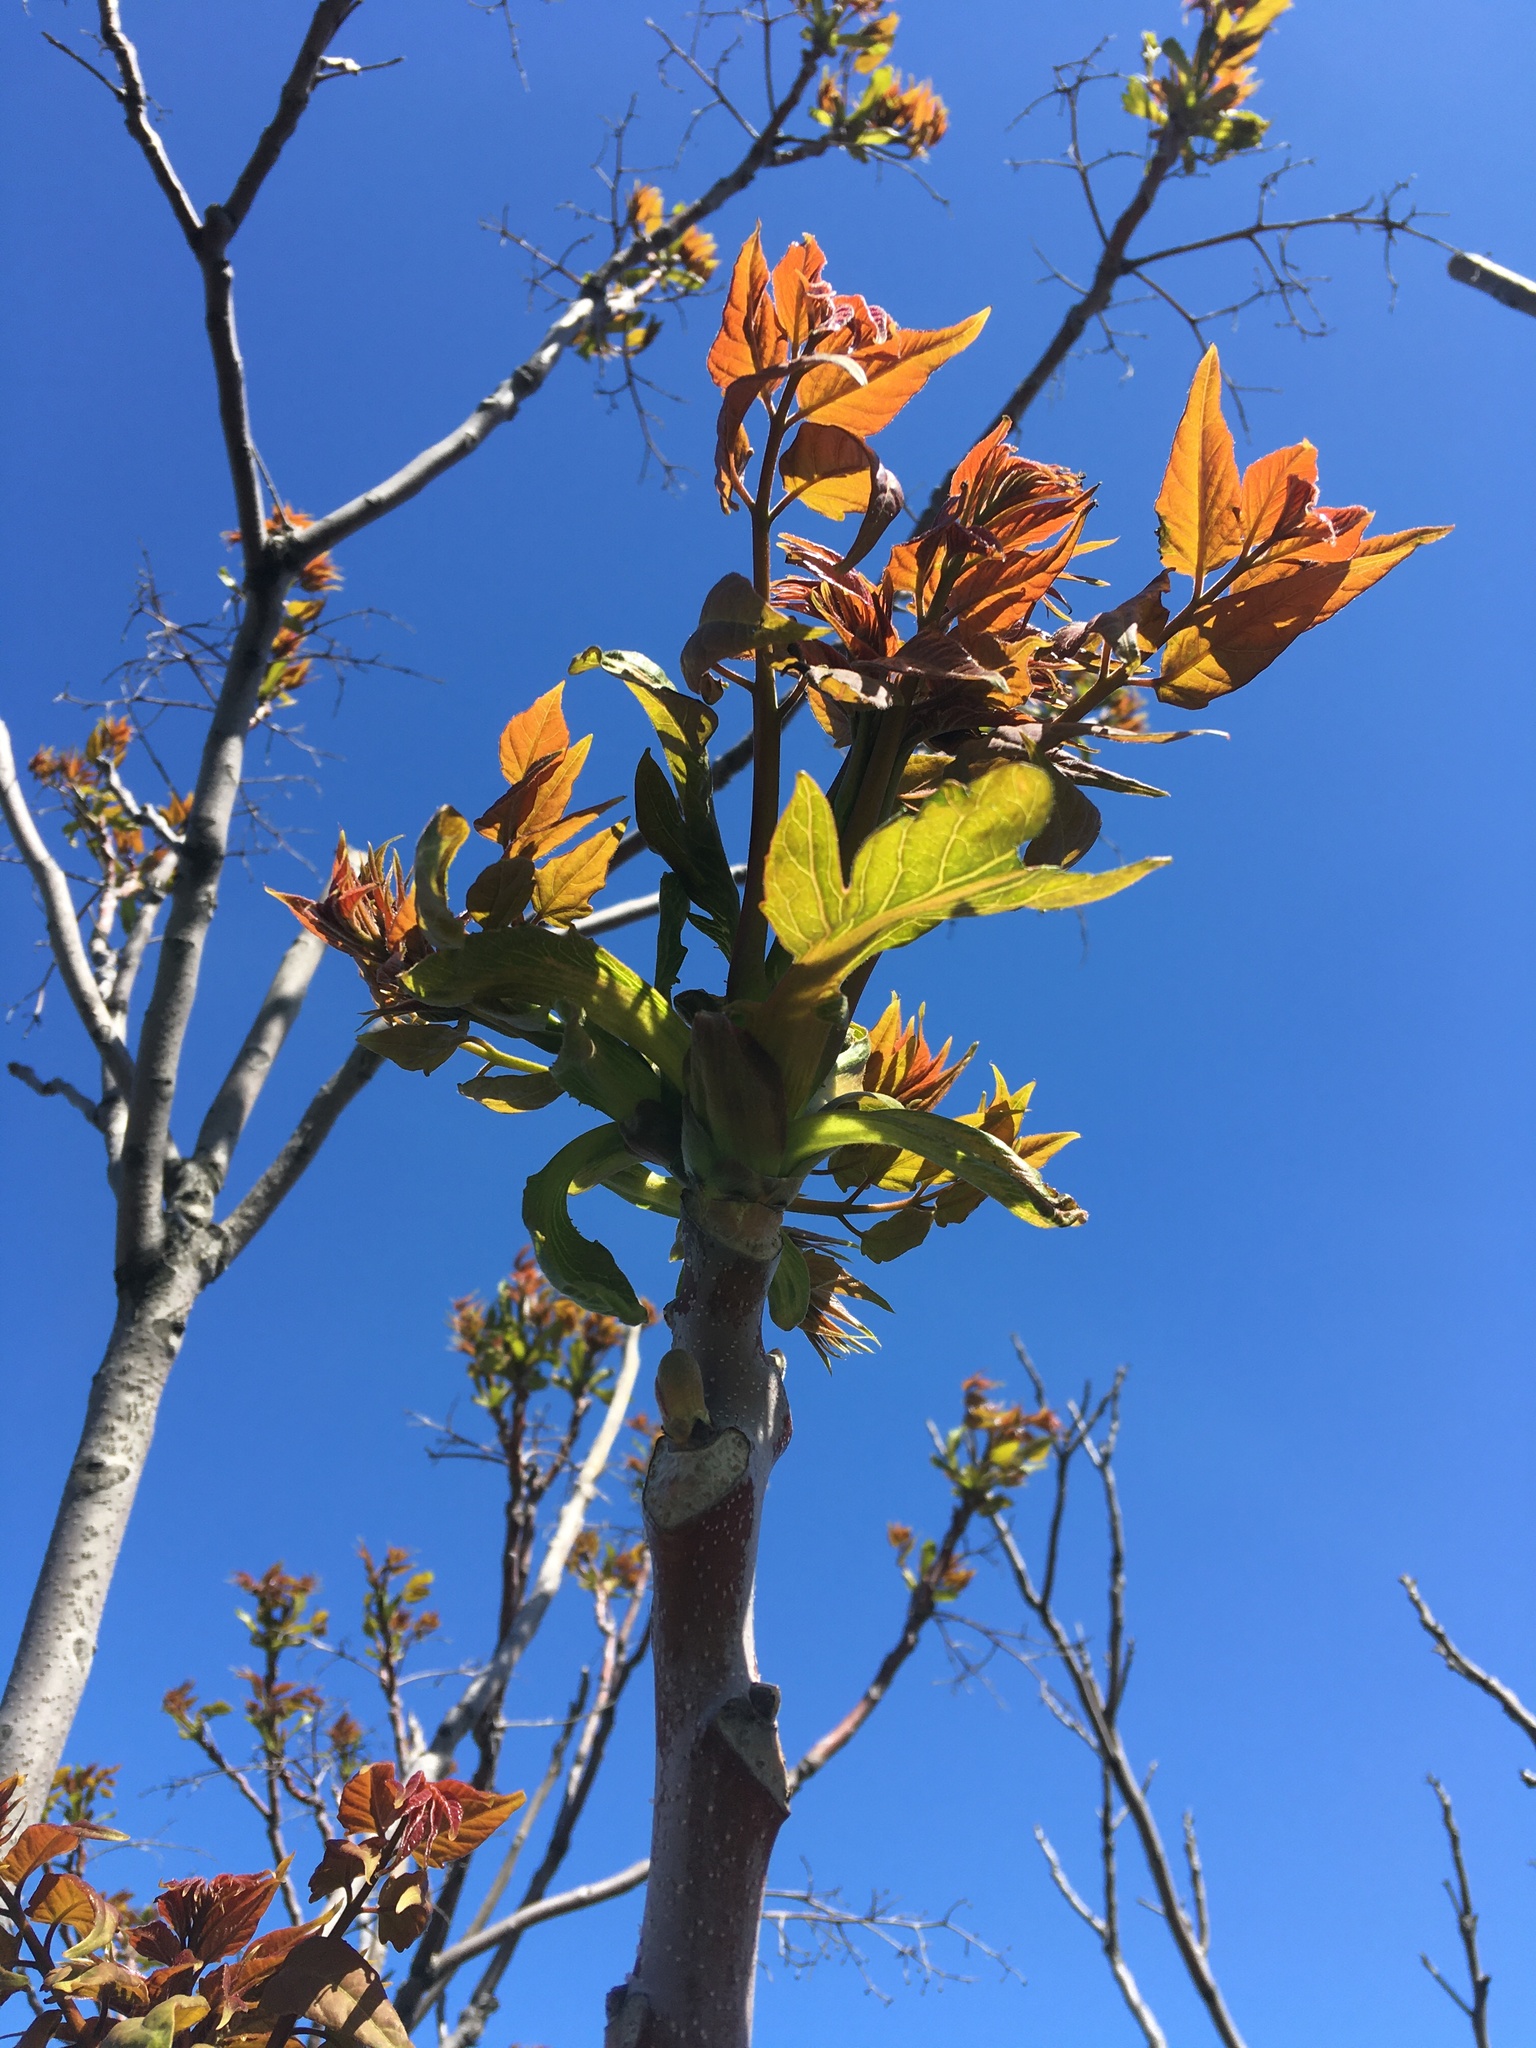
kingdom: Plantae
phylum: Tracheophyta
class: Magnoliopsida
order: Sapindales
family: Simaroubaceae
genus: Ailanthus
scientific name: Ailanthus altissima
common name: Tree-of-heaven
